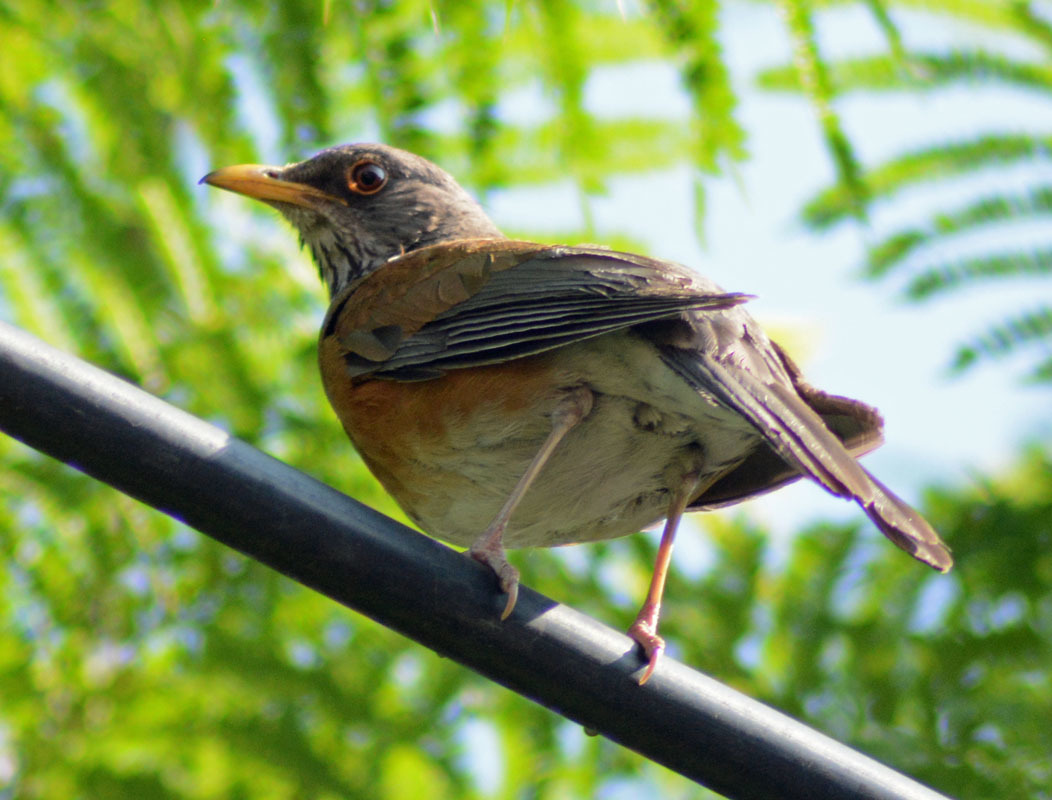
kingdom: Animalia
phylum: Chordata
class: Aves
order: Passeriformes
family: Turdidae
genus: Turdus
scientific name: Turdus rufopalliatus
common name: Rufous-backed robin
